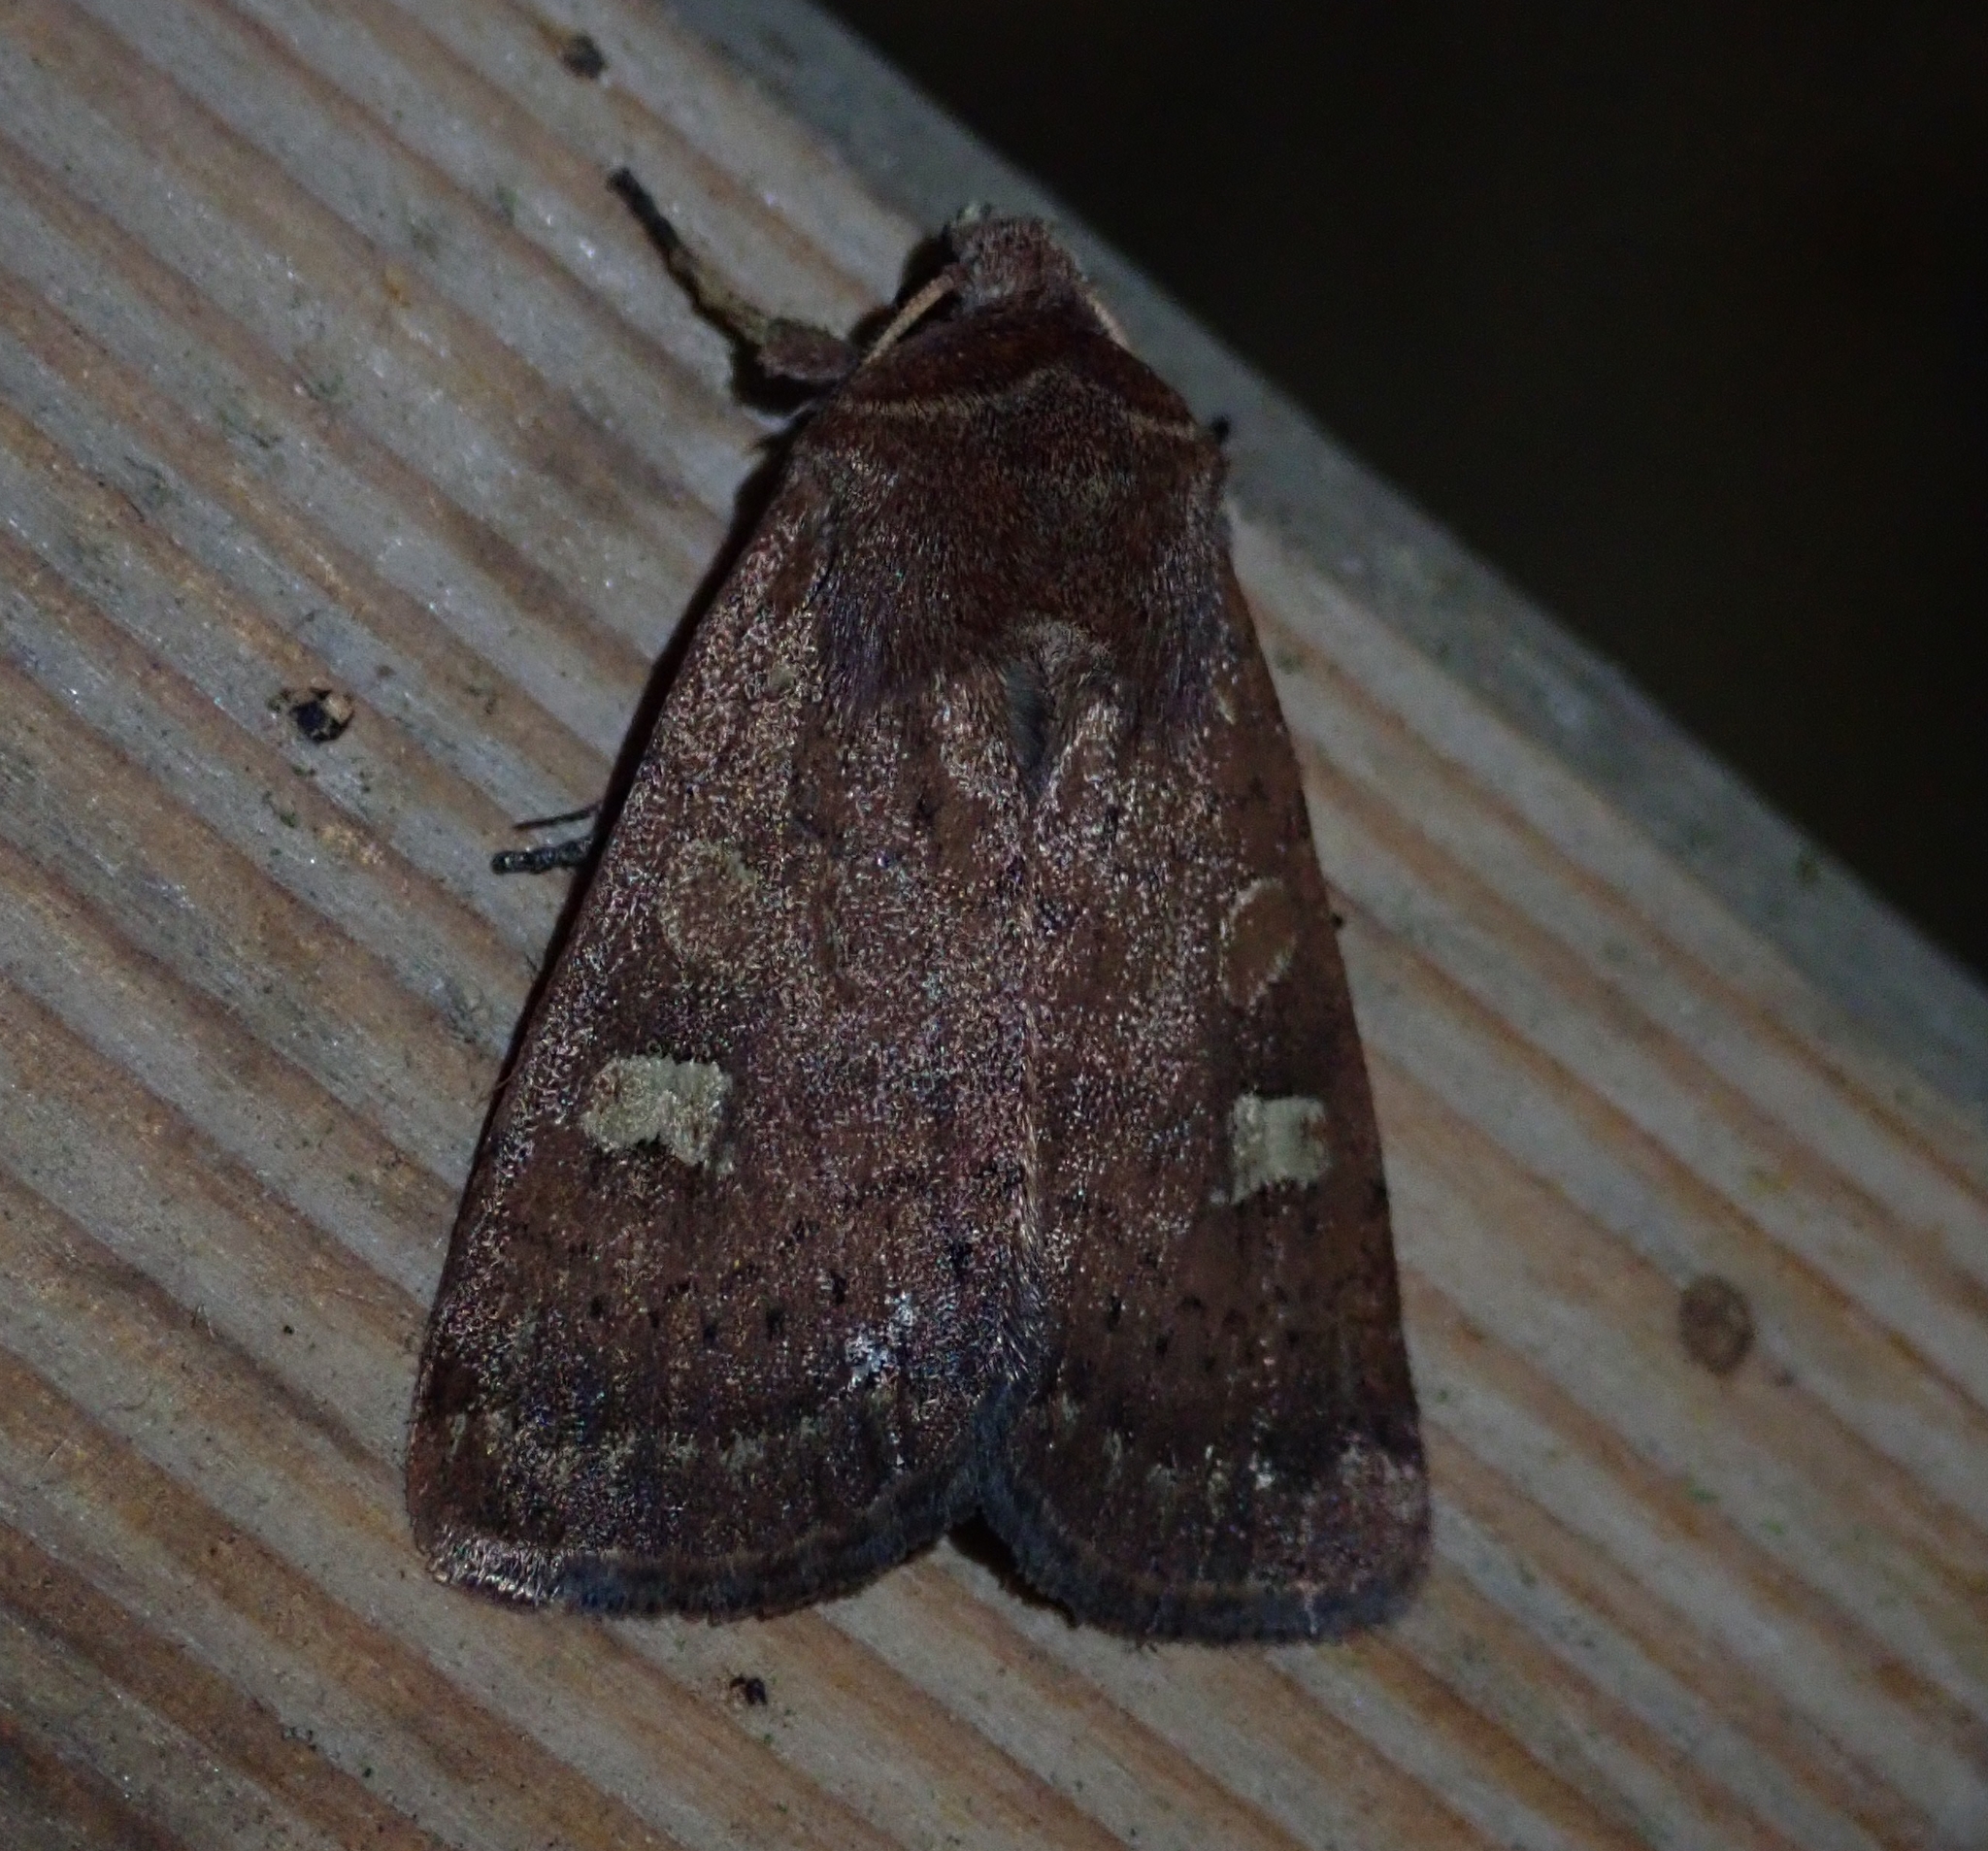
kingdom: Animalia
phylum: Arthropoda
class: Insecta
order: Lepidoptera
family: Noctuidae
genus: Xestia
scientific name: Xestia xanthographa
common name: Square-spot rustic
